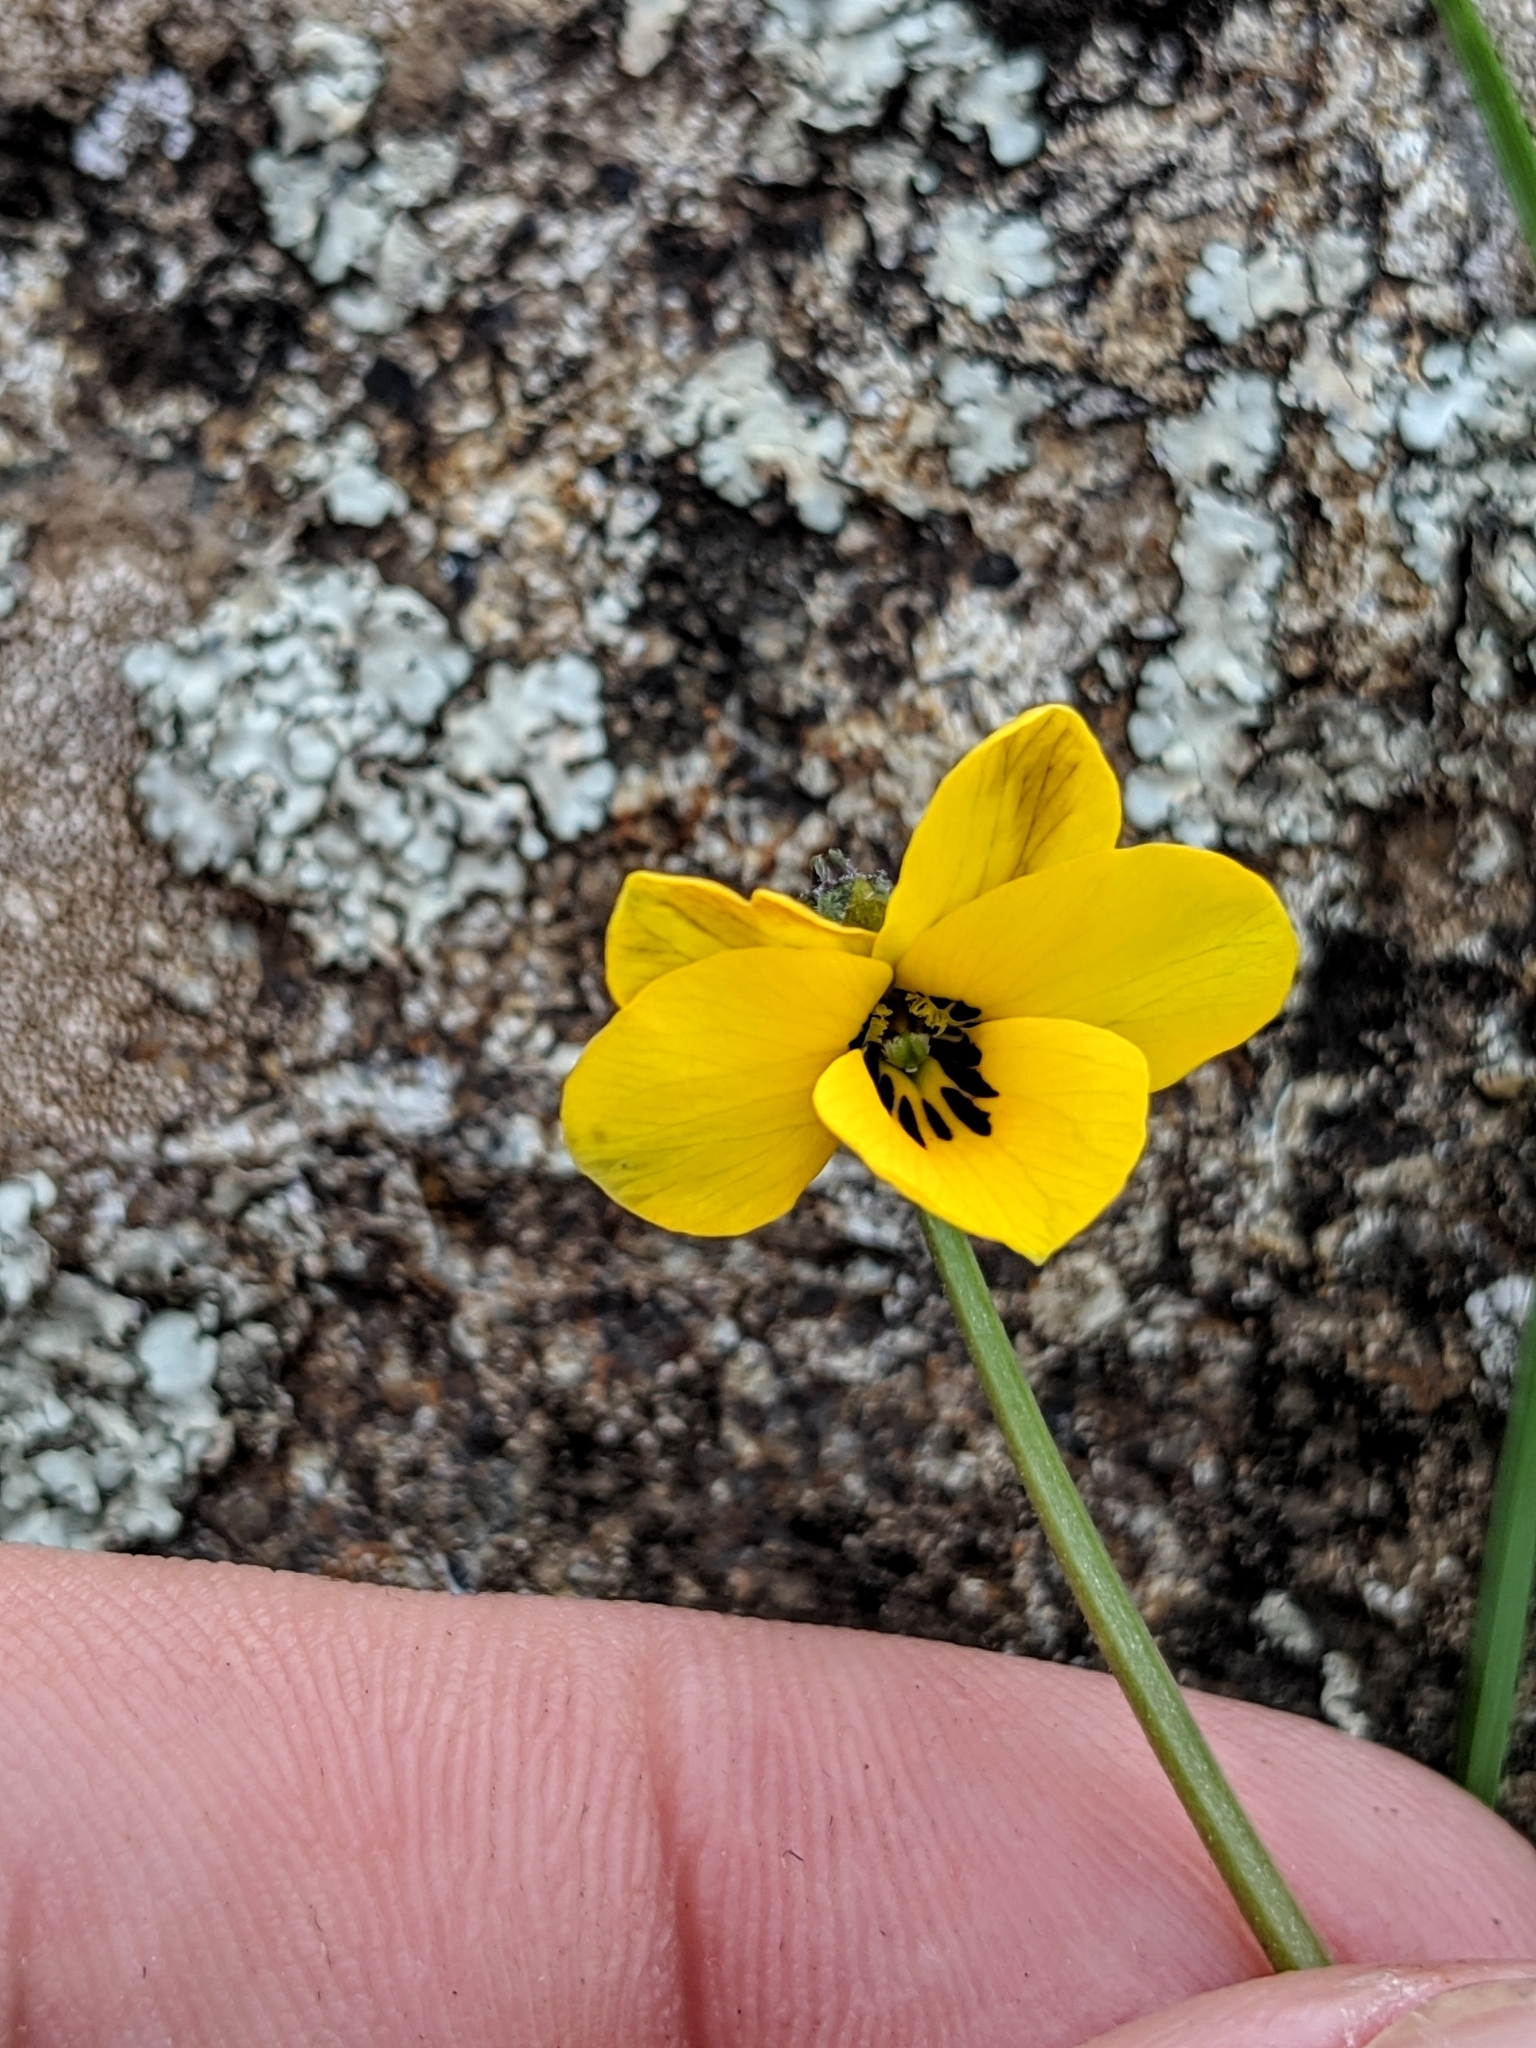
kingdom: Plantae
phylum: Tracheophyta
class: Magnoliopsida
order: Malpighiales
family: Violaceae
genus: Viola
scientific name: Viola pedunculata
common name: California golden violet
